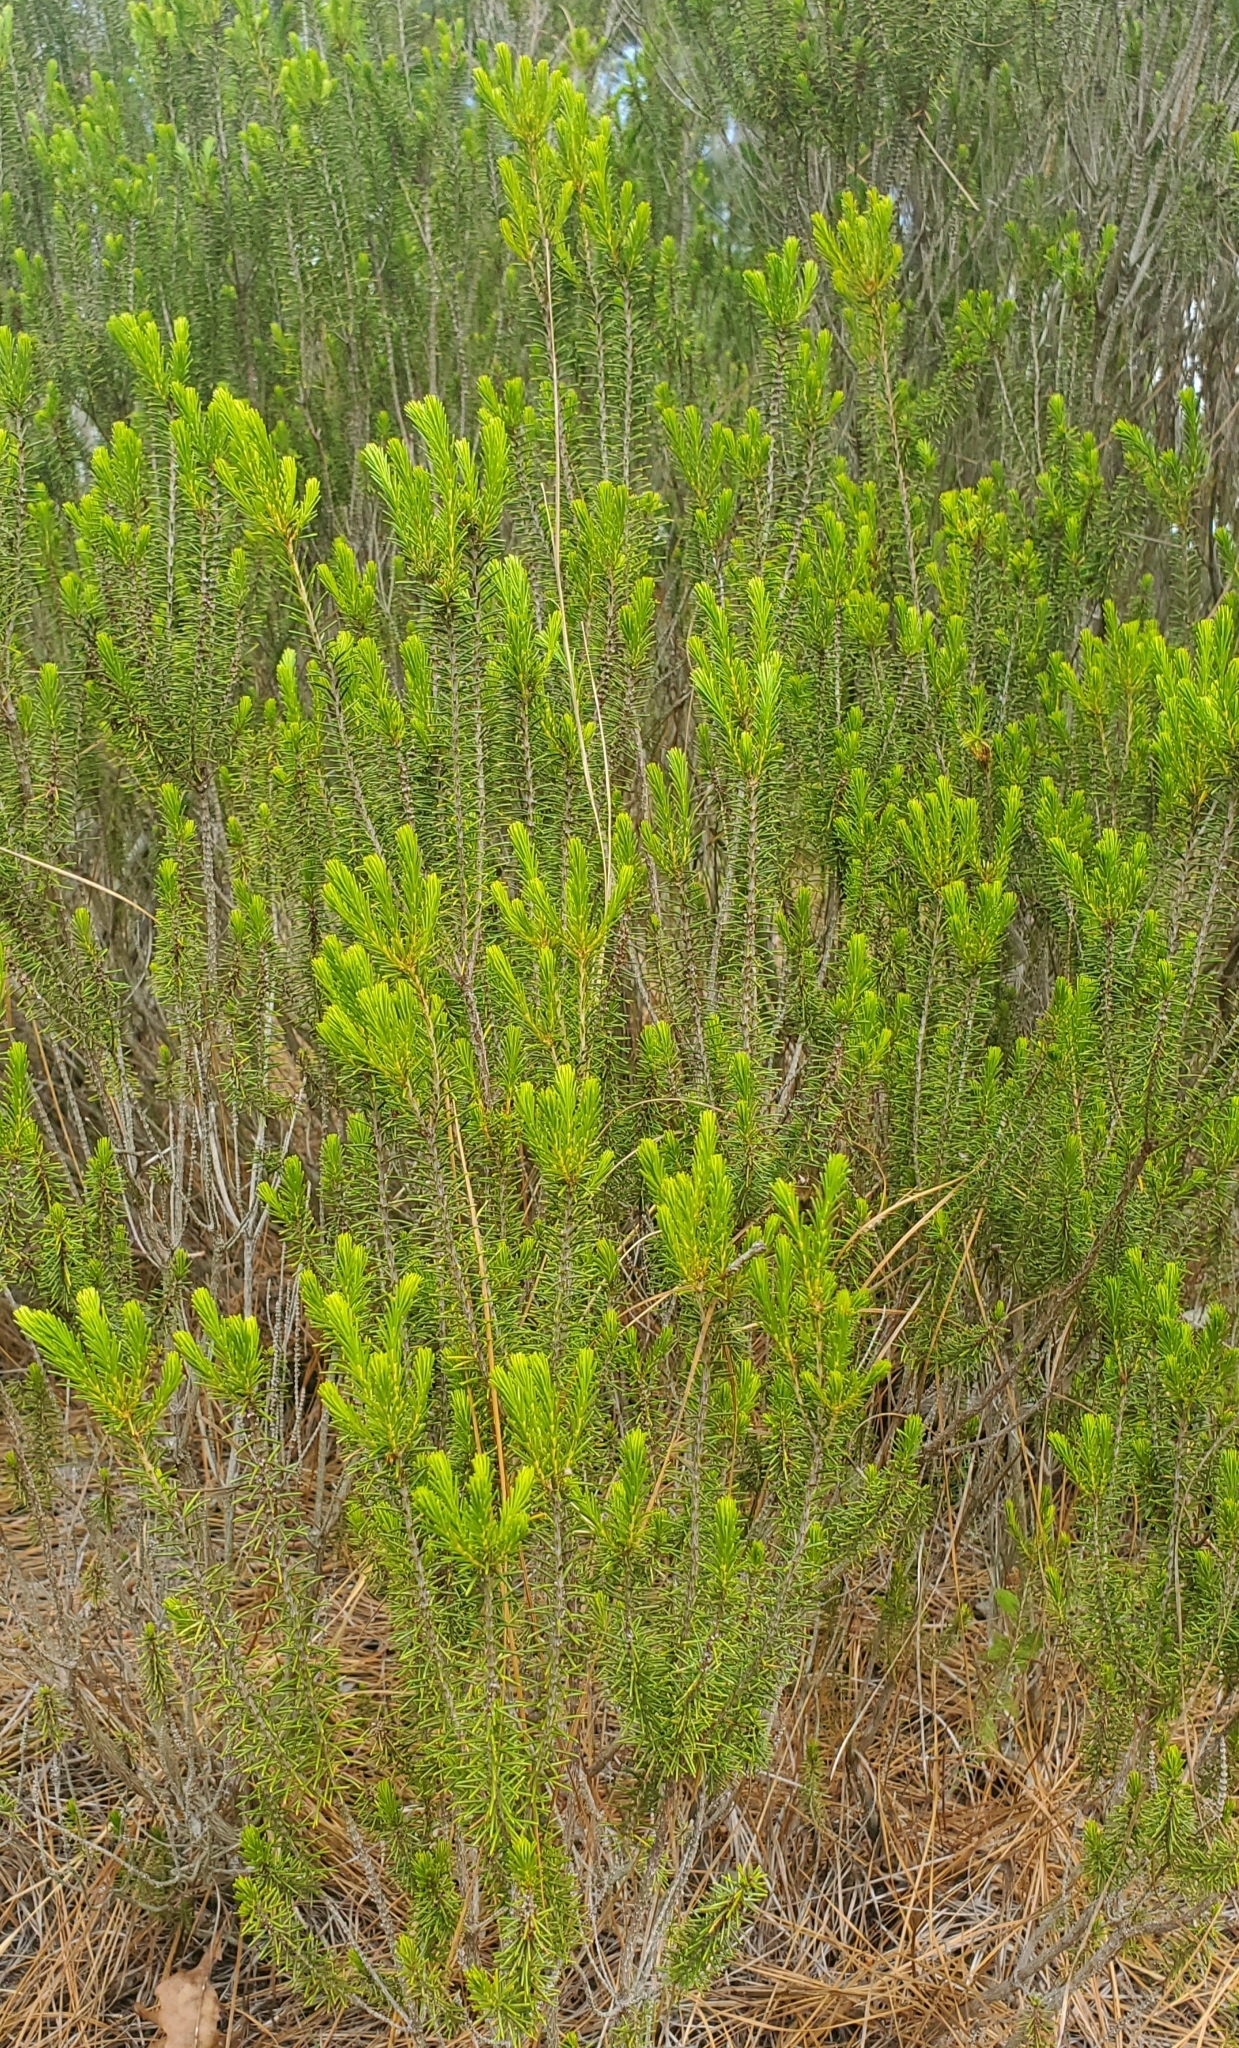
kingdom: Plantae
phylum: Tracheophyta
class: Magnoliopsida
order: Ericales
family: Ericaceae
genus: Ceratiola
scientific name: Ceratiola ericoides
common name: Sandhill-rosemary
